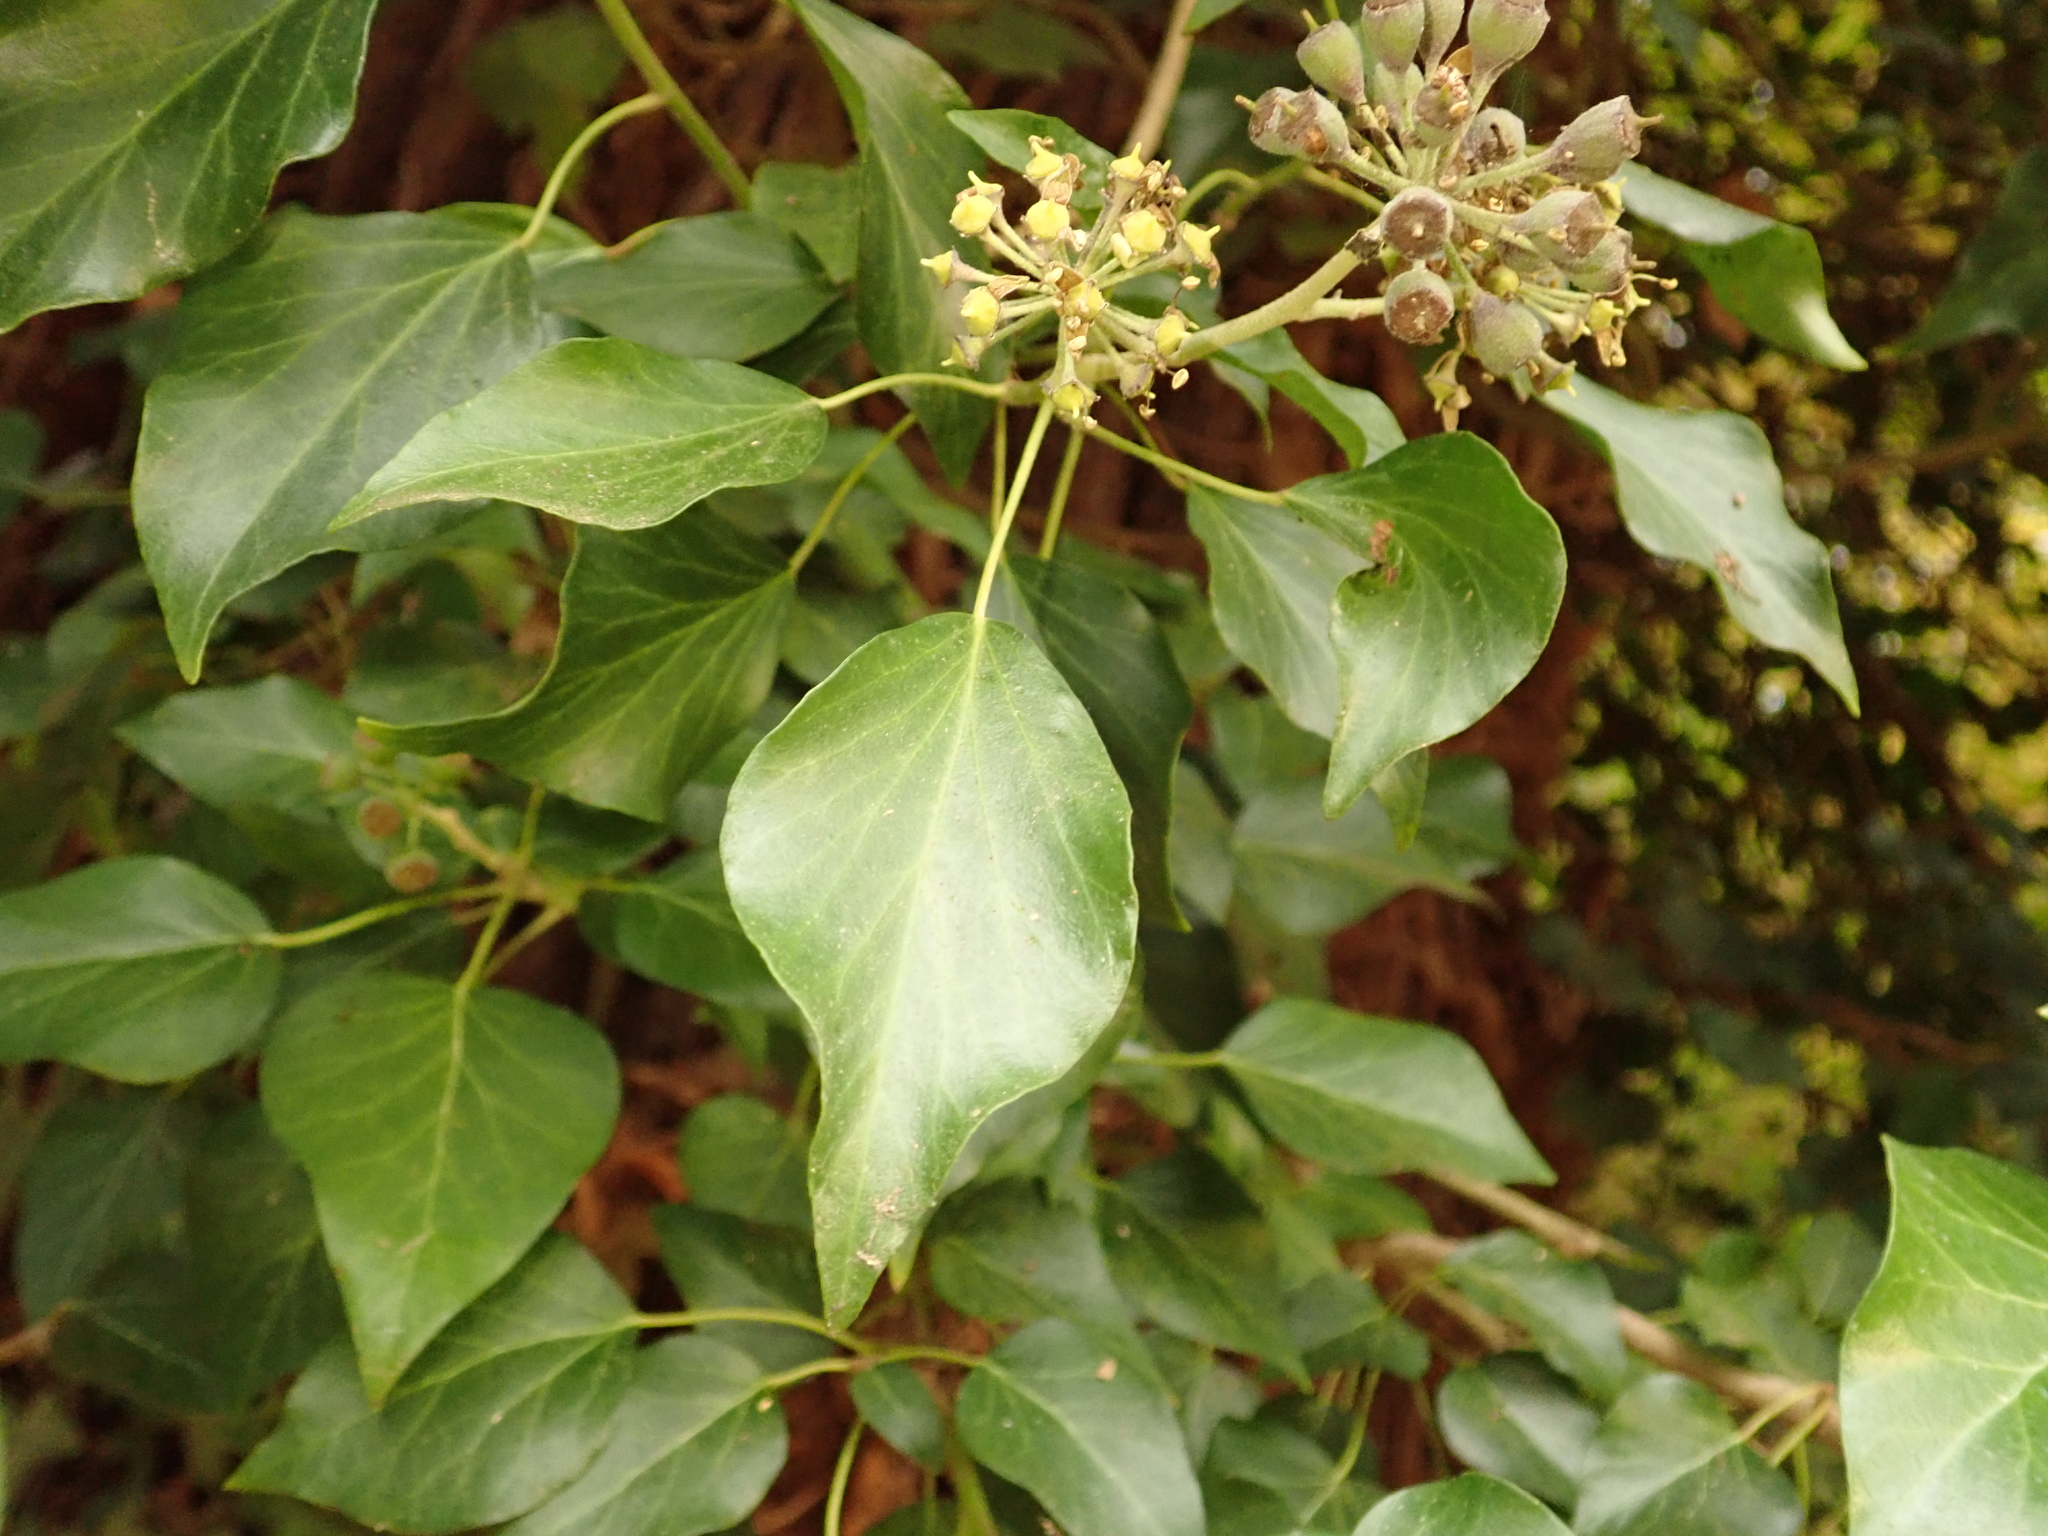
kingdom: Plantae
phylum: Tracheophyta
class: Magnoliopsida
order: Apiales
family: Araliaceae
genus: Hedera
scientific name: Hedera helix
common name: Ivy
